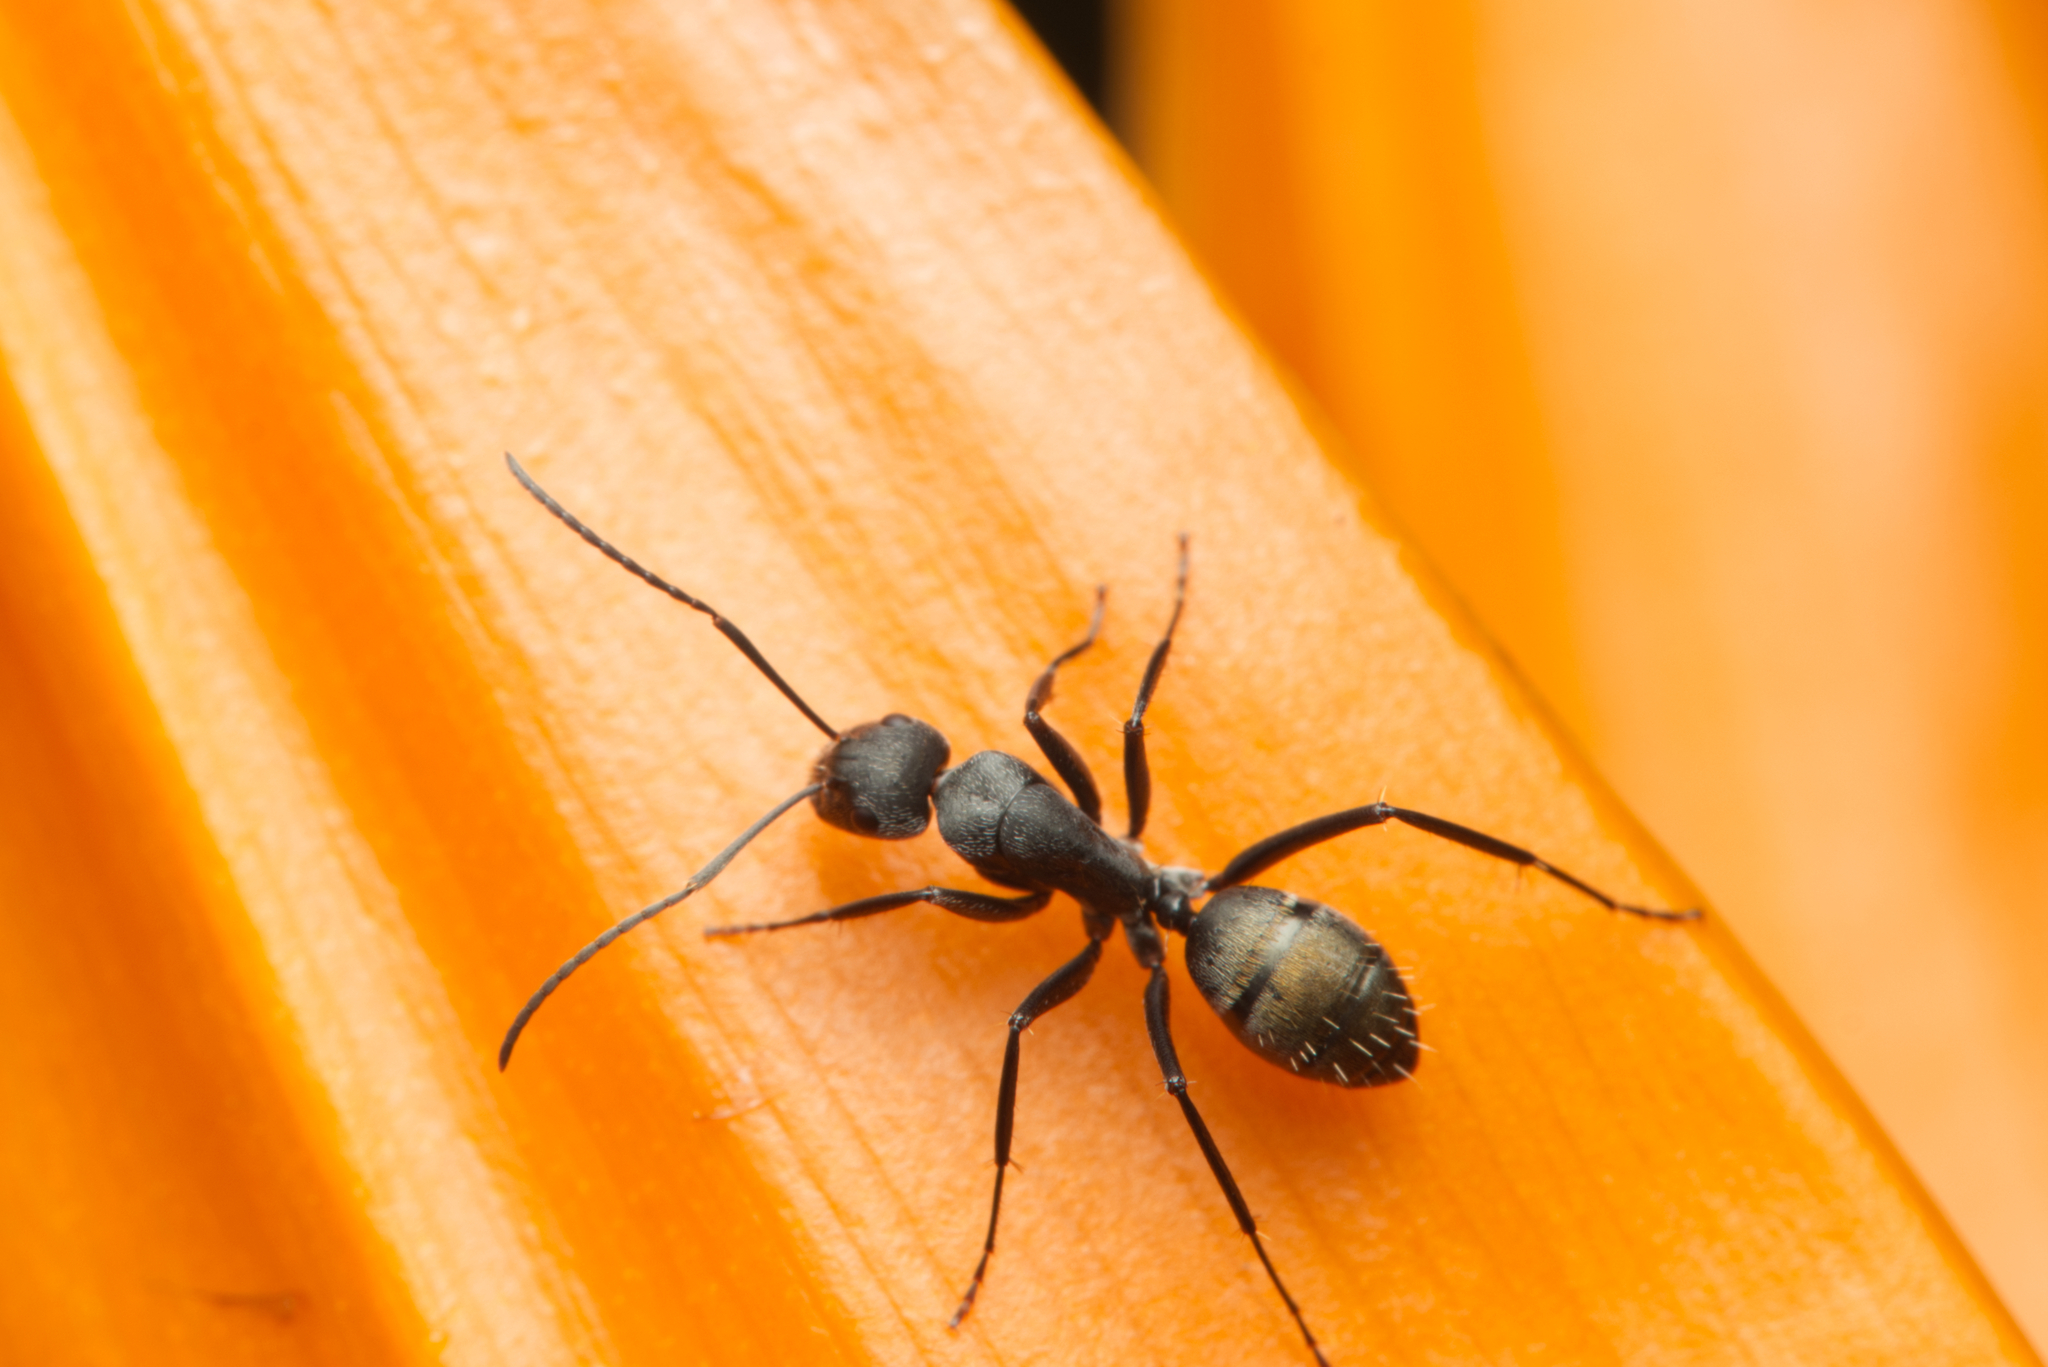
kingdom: Animalia
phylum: Arthropoda
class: Insecta
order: Hymenoptera
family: Formicidae
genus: Camponotus
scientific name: Camponotus aeneopilosus
